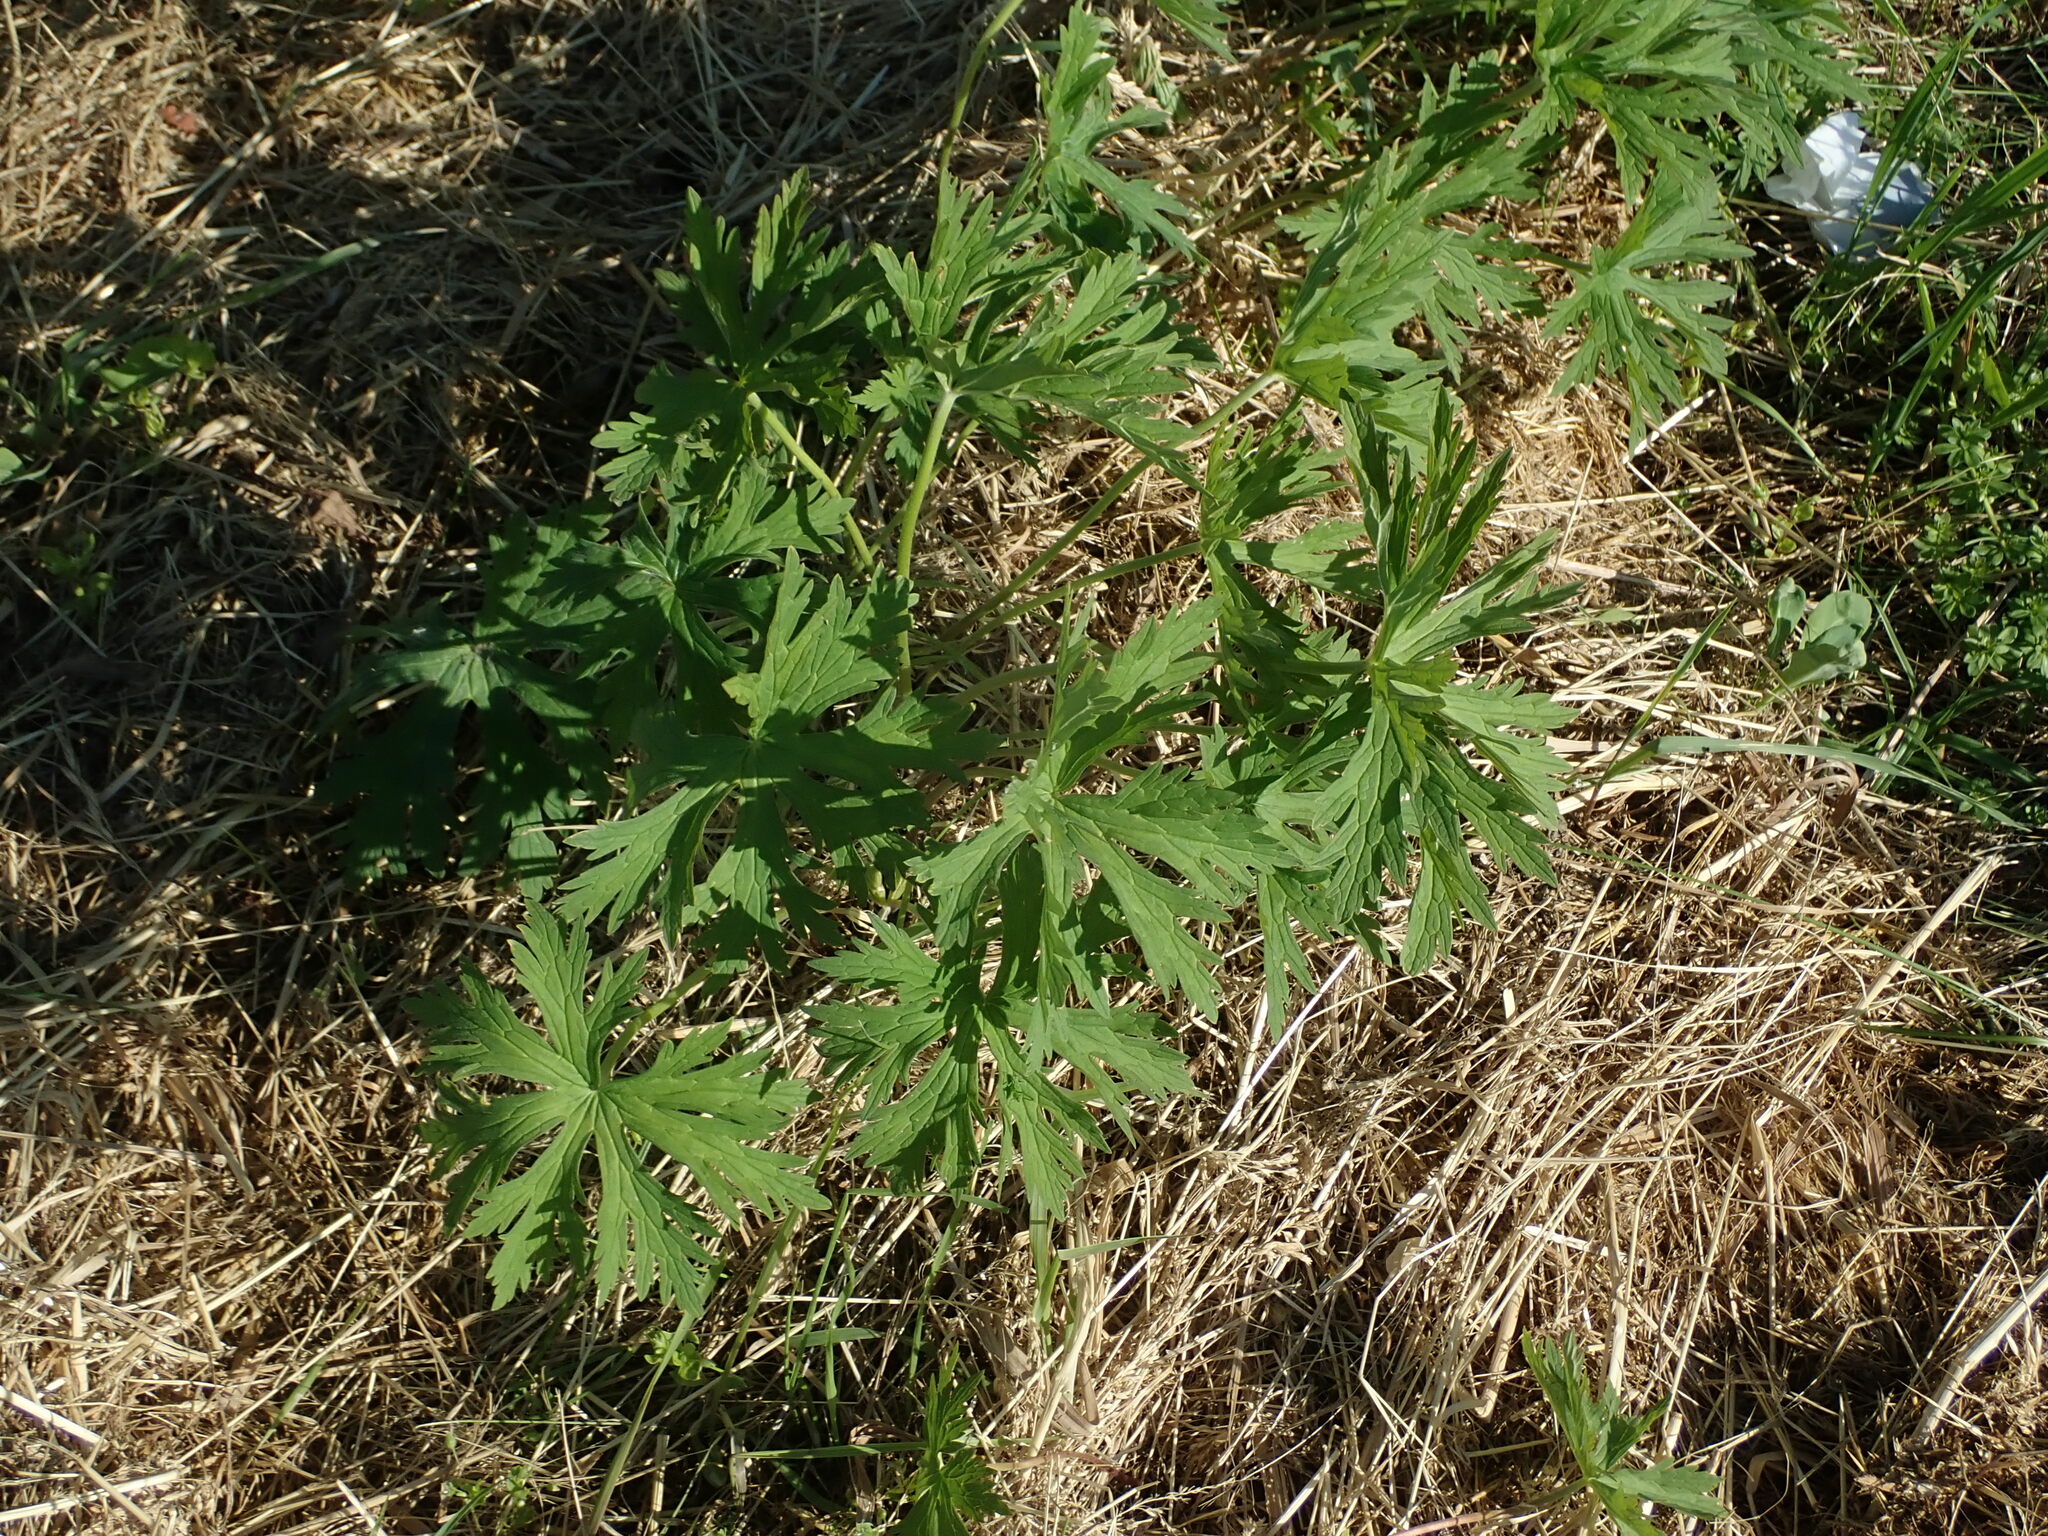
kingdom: Plantae
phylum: Tracheophyta
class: Magnoliopsida
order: Geraniales
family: Geraniaceae
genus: Geranium
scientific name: Geranium pratense
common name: Meadow crane's-bill
